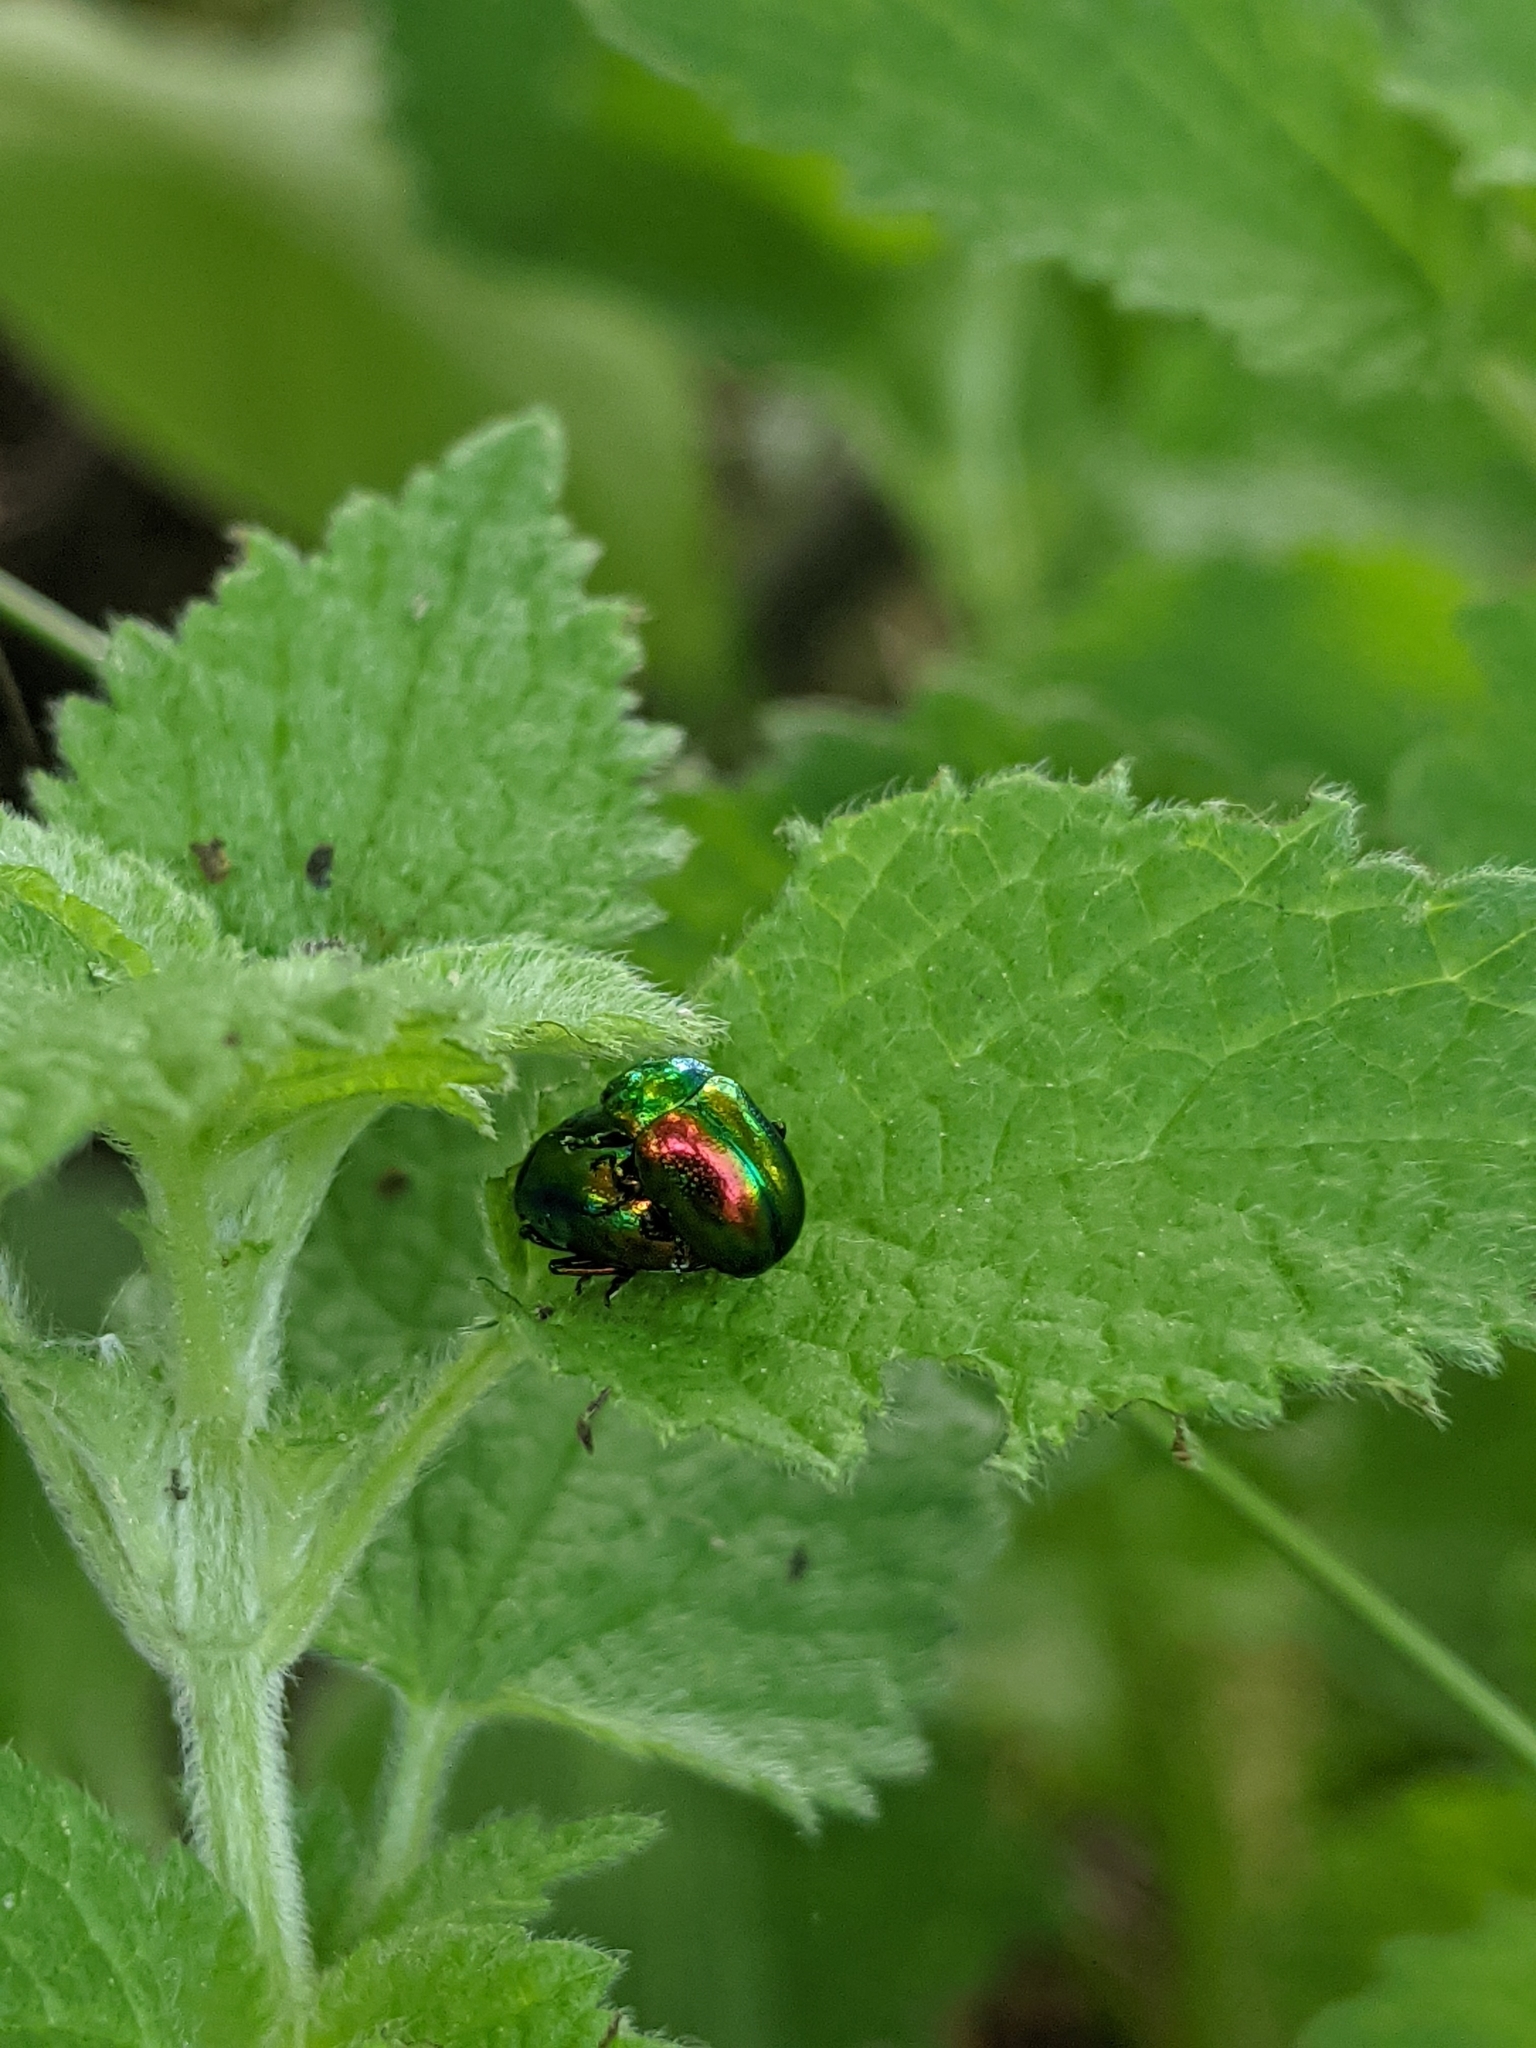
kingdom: Animalia
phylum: Arthropoda
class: Insecta
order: Coleoptera
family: Chrysomelidae
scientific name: Chrysomelidae
